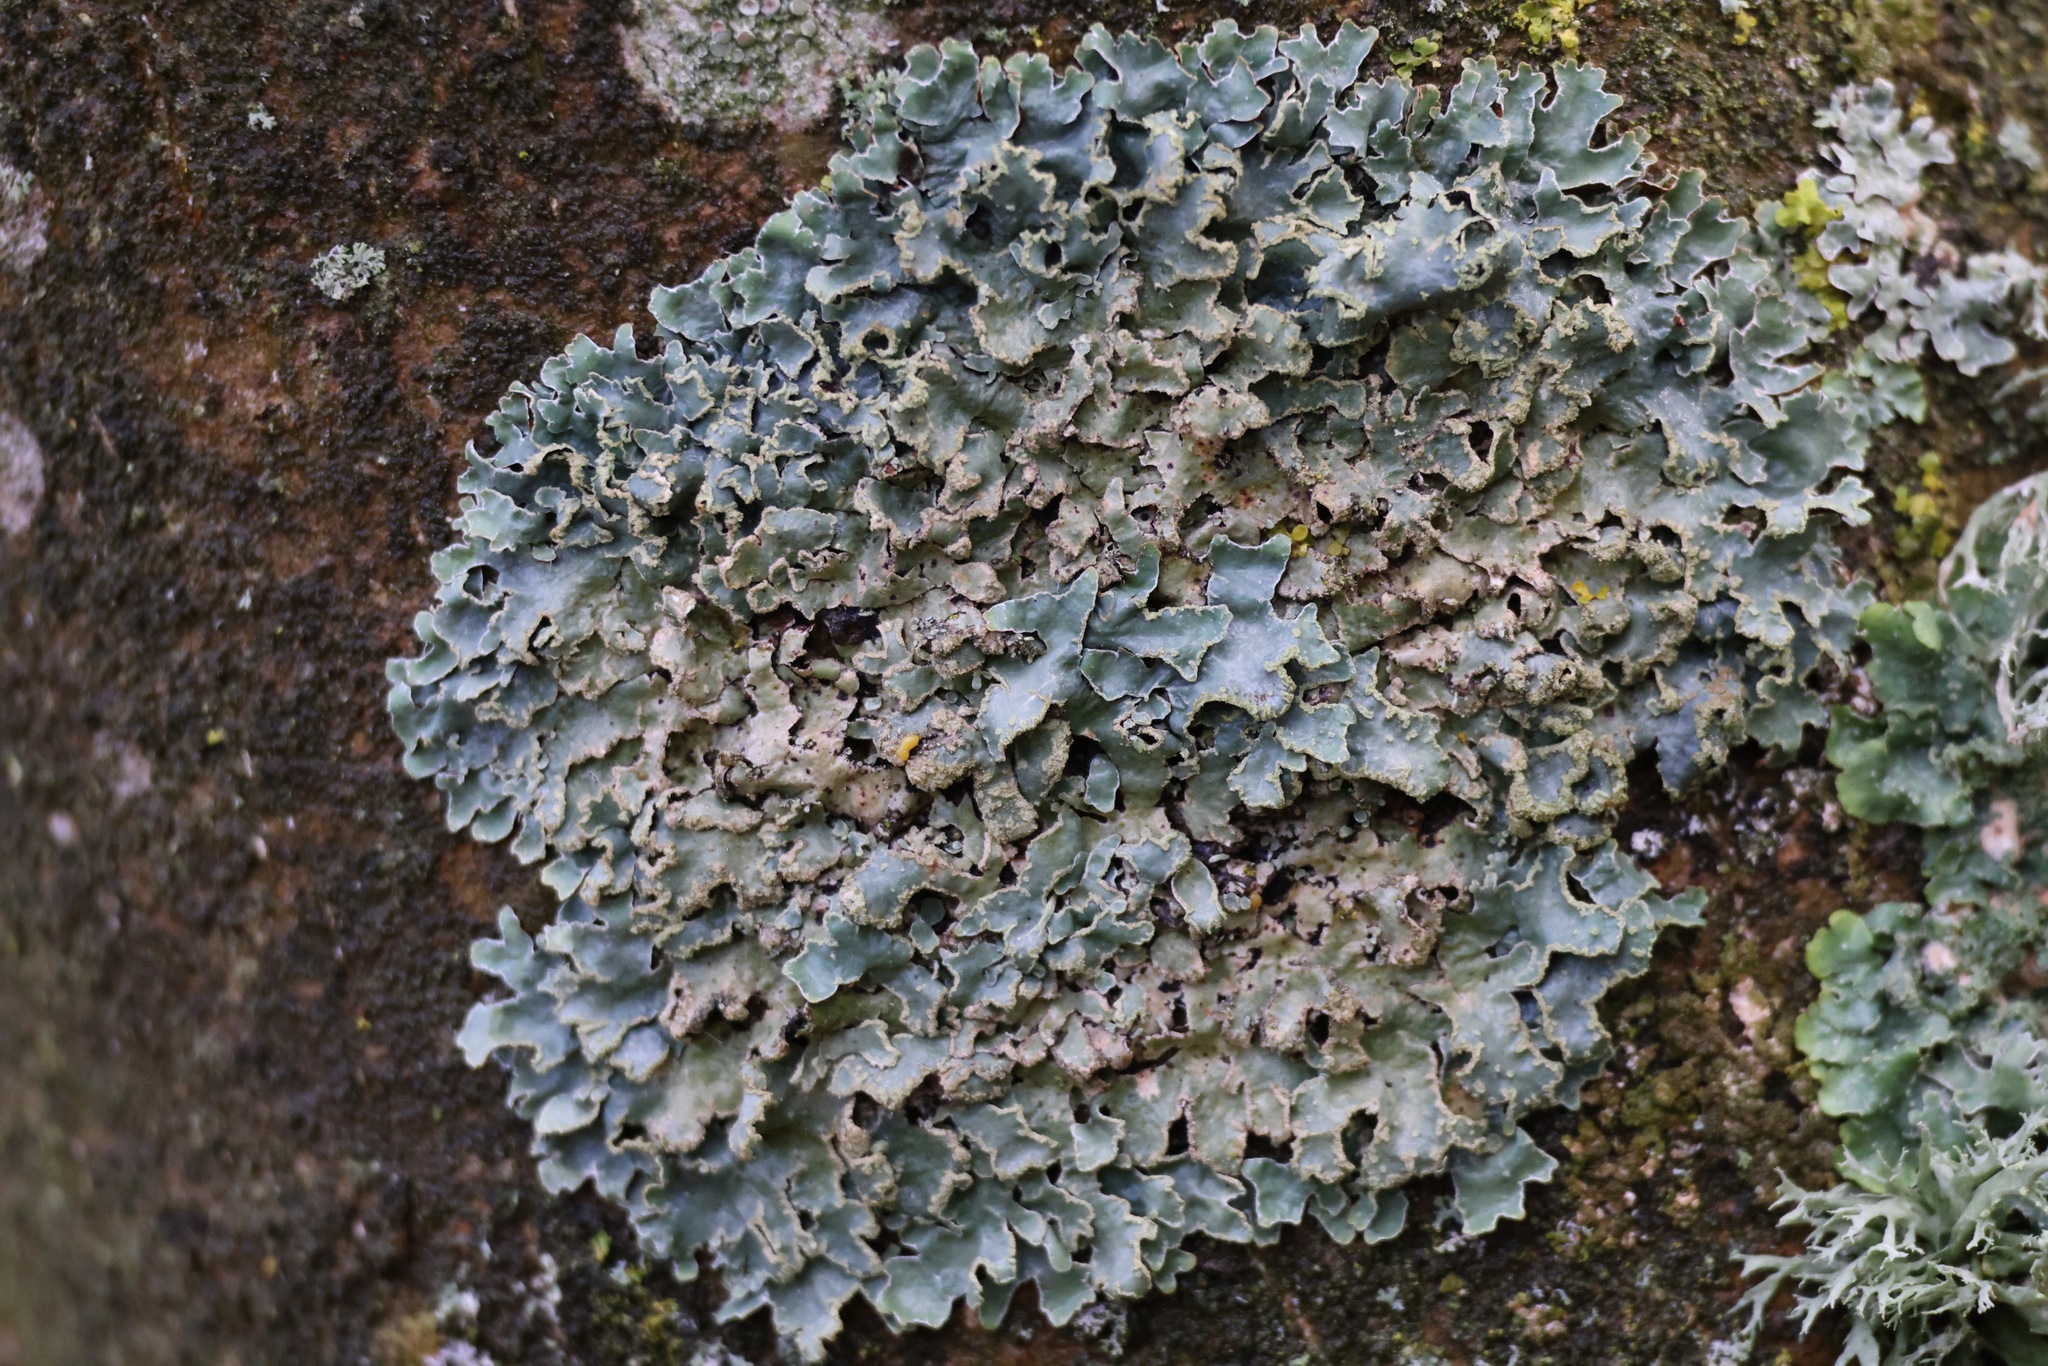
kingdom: Fungi
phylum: Ascomycota
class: Lecanoromycetes
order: Lecanorales
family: Parmeliaceae
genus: Parmelia
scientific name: Parmelia sulcata
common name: Netted shield lichen
